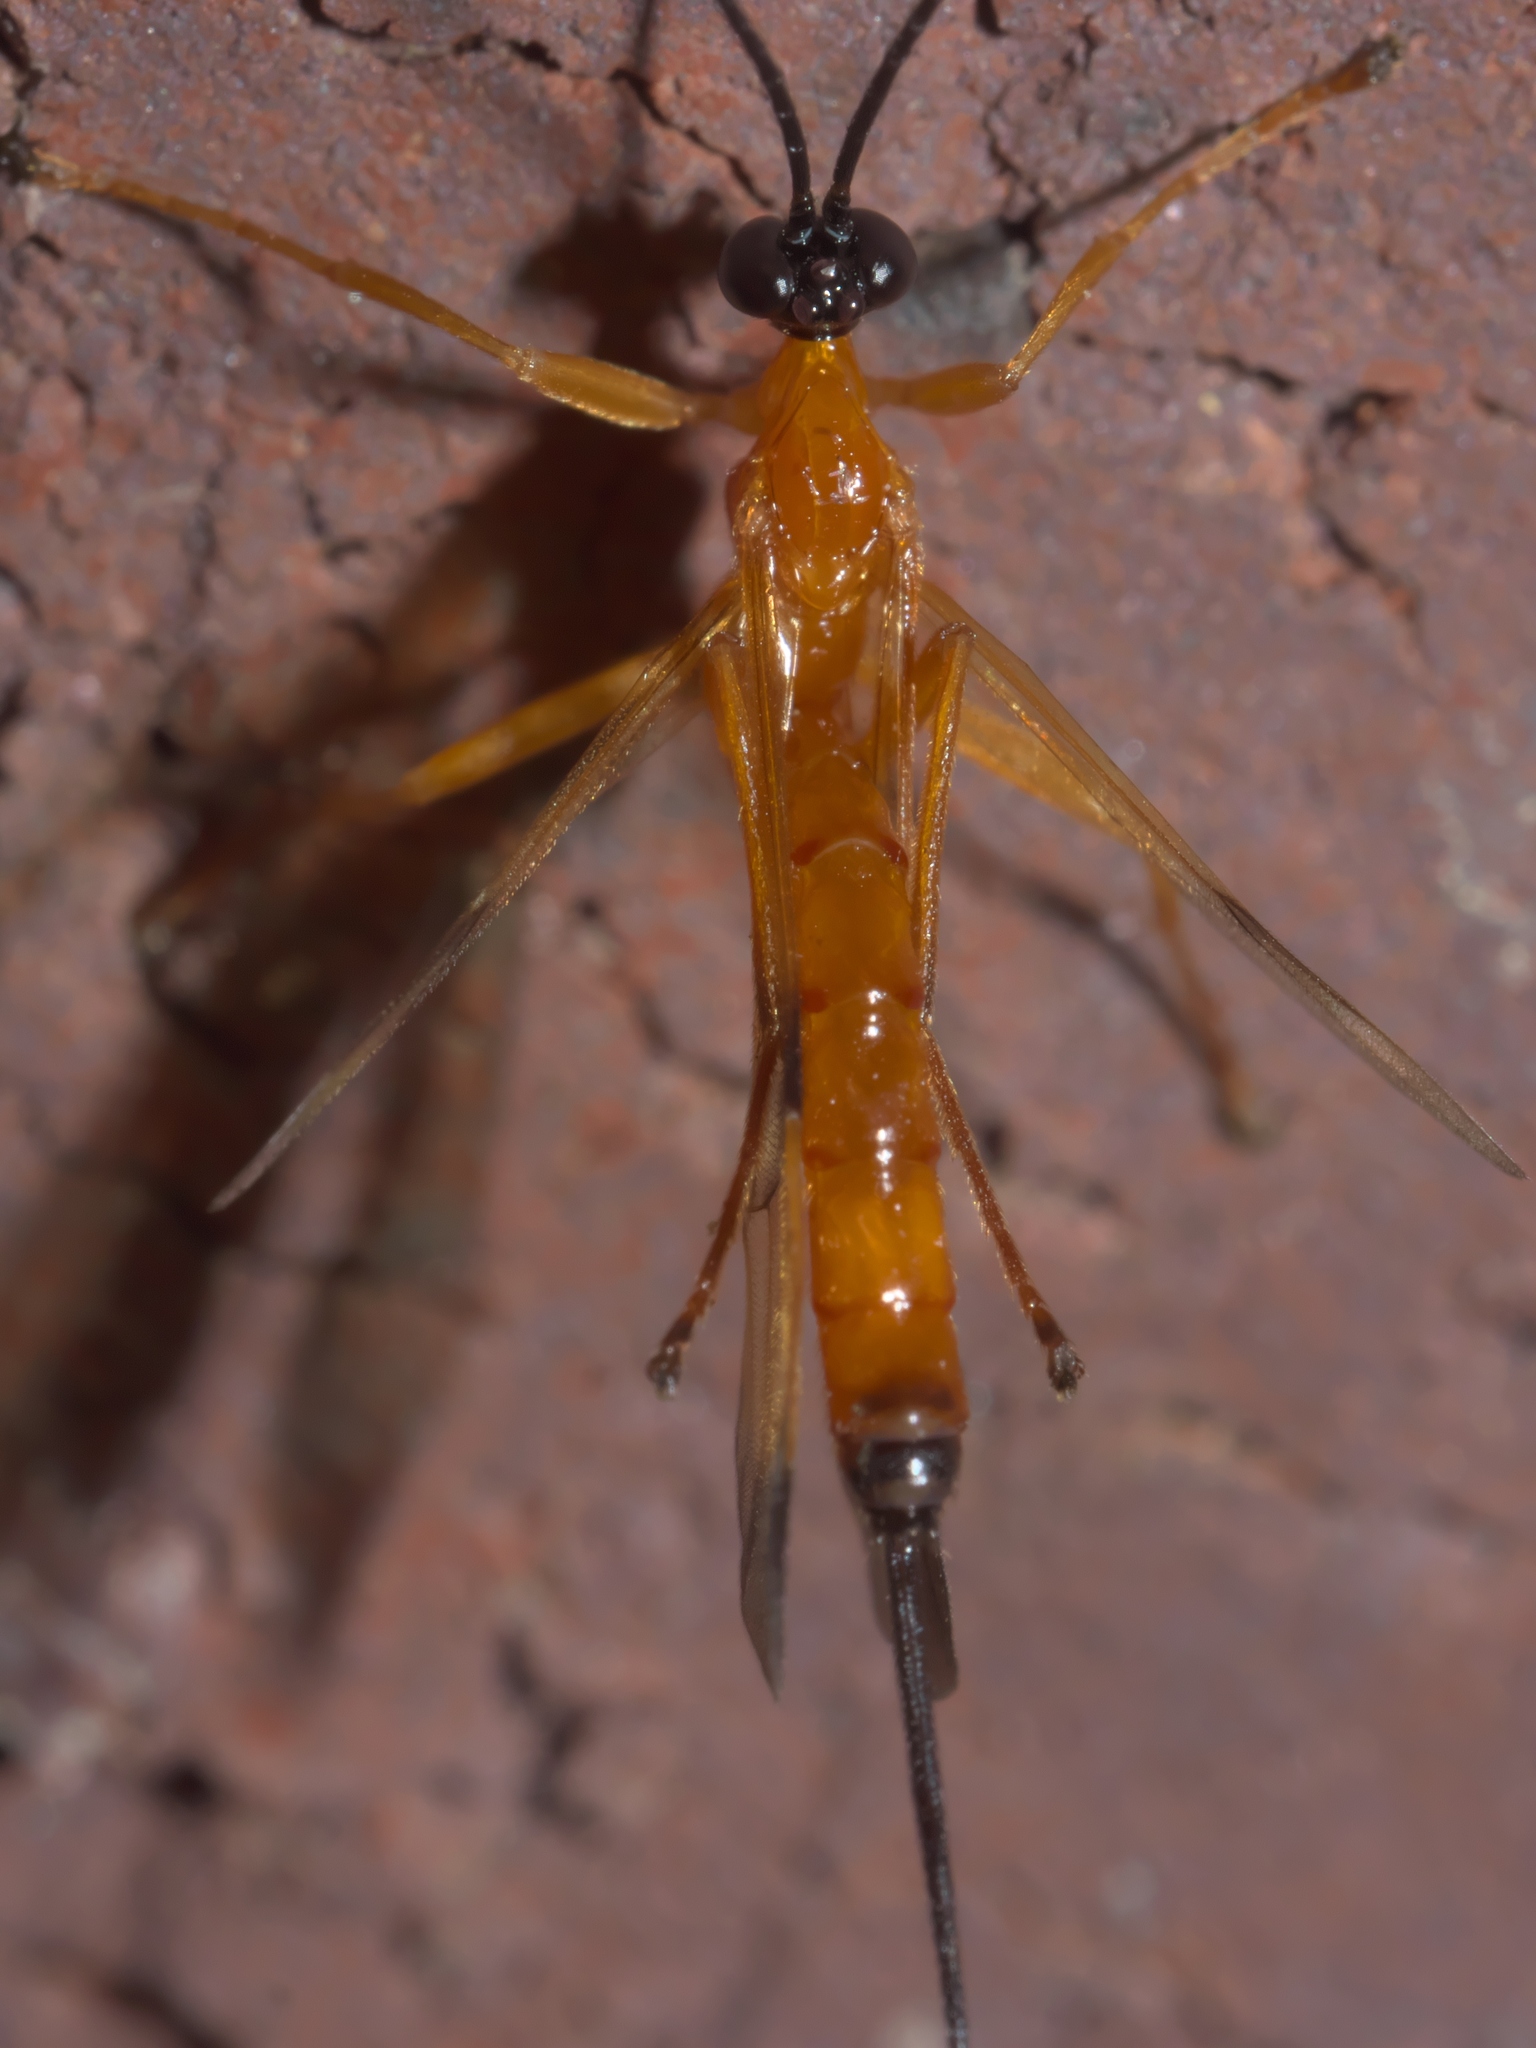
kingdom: Animalia
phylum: Arthropoda
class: Insecta
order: Hymenoptera
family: Ichneumonidae
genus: Acrotaphus
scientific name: Acrotaphus wiltii
